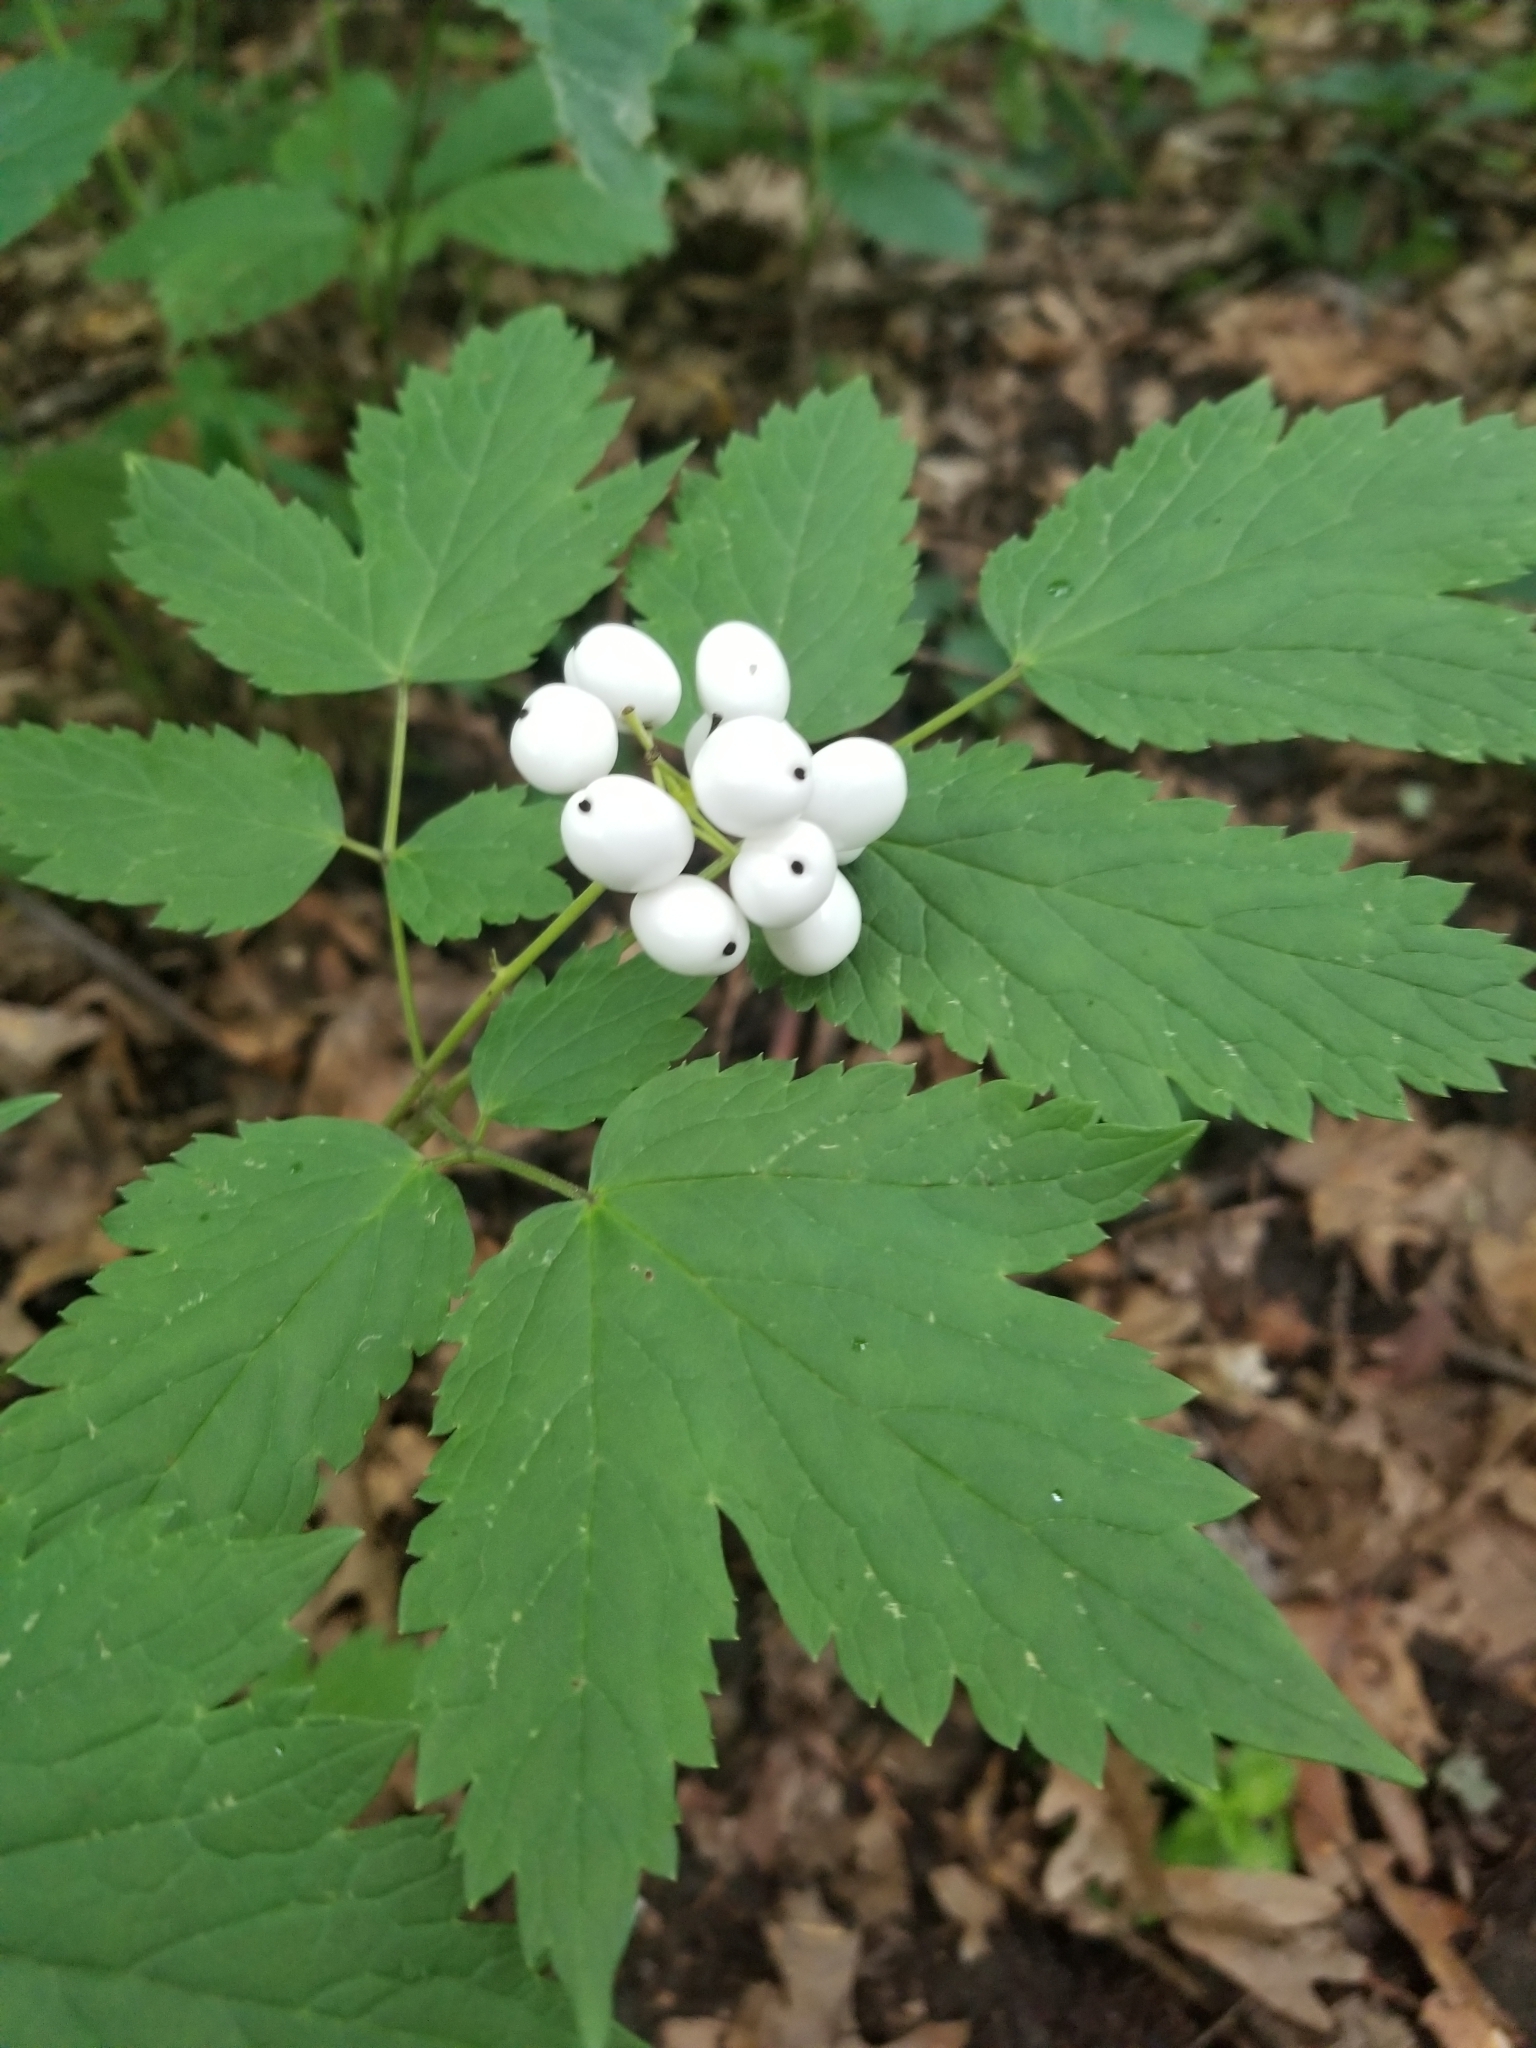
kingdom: Plantae
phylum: Tracheophyta
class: Magnoliopsida
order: Ranunculales
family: Ranunculaceae
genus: Actaea
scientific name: Actaea rubra
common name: Red baneberry
